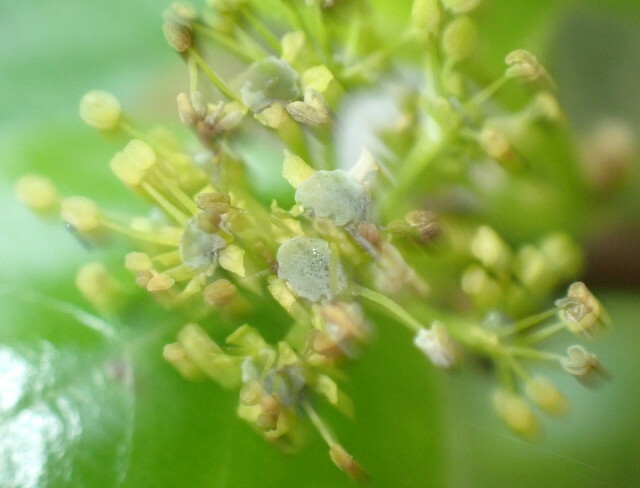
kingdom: Plantae
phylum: Tracheophyta
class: Magnoliopsida
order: Cornales
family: Nyssaceae
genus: Nyssa
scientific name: Nyssa sylvatica
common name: Black tupelo
